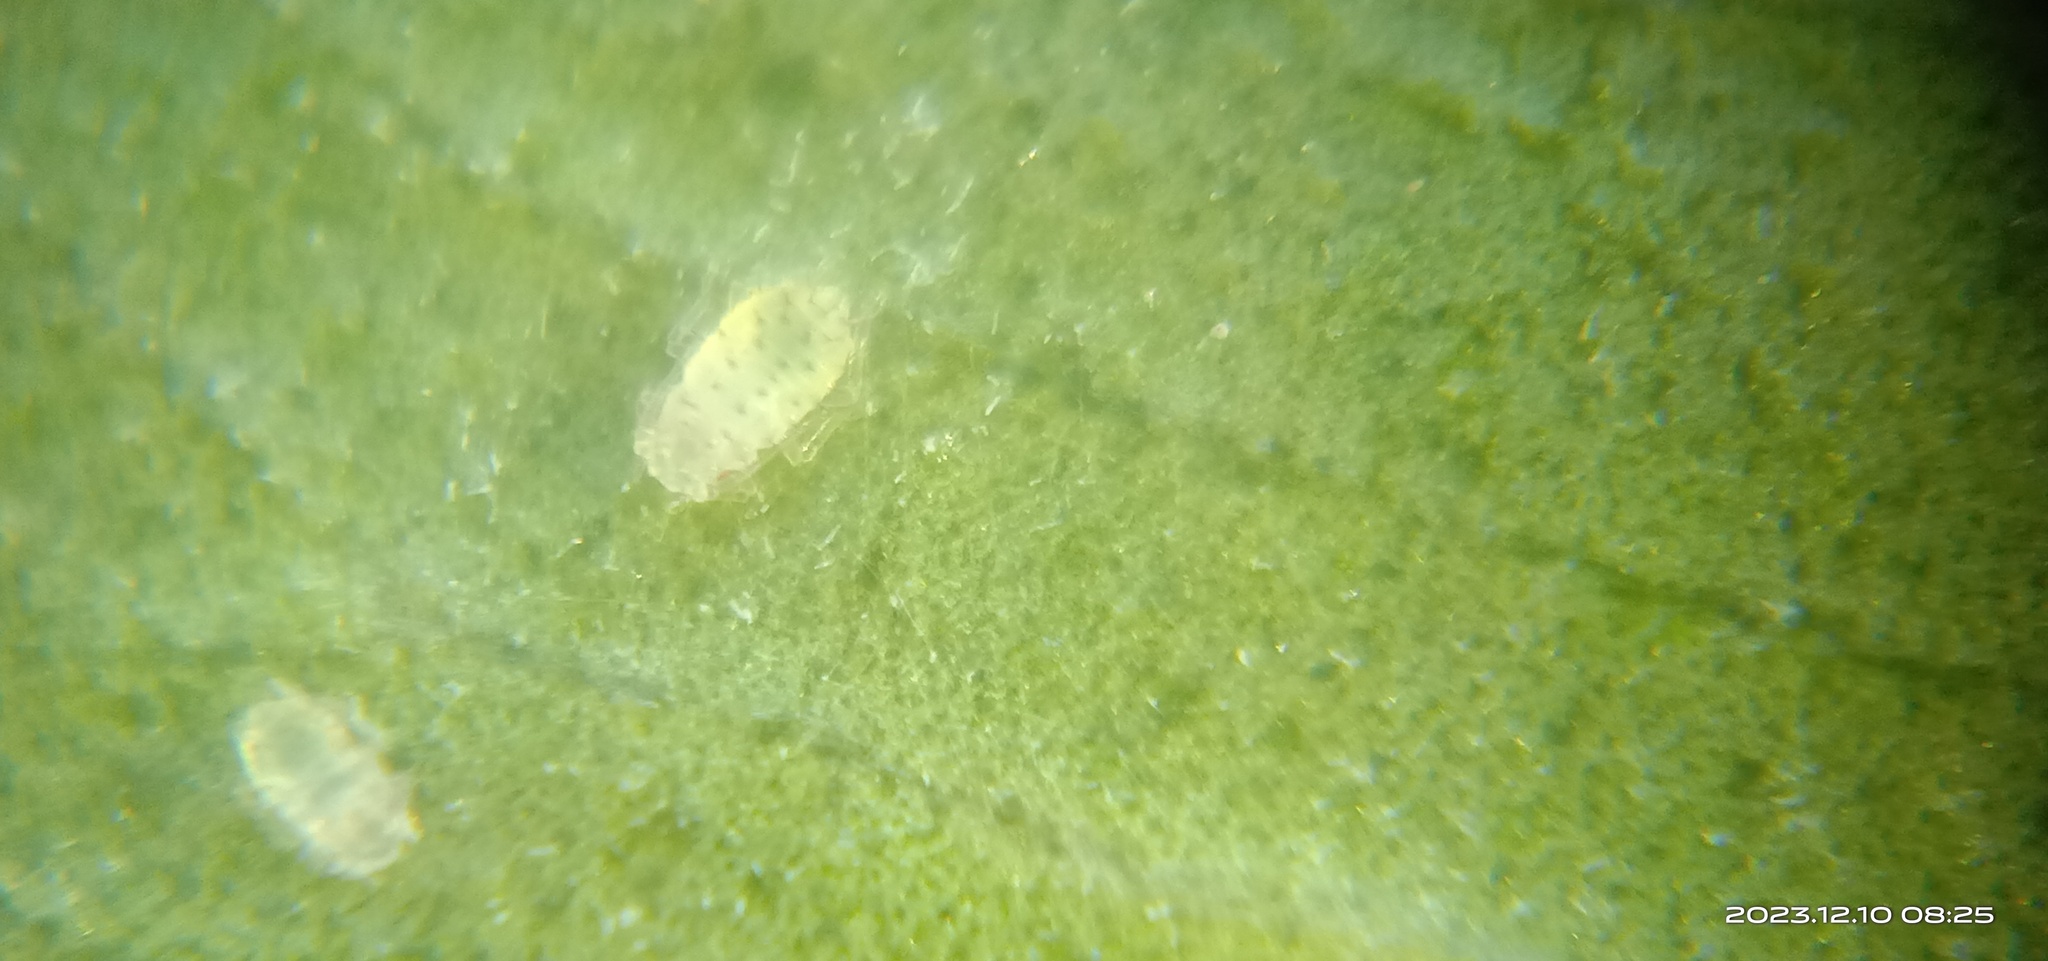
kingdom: Animalia
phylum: Arthropoda
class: Insecta
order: Hemiptera
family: Aphididae
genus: Sarucallis
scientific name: Sarucallis kahawaluokalani
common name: Crapemyrtle aphid
